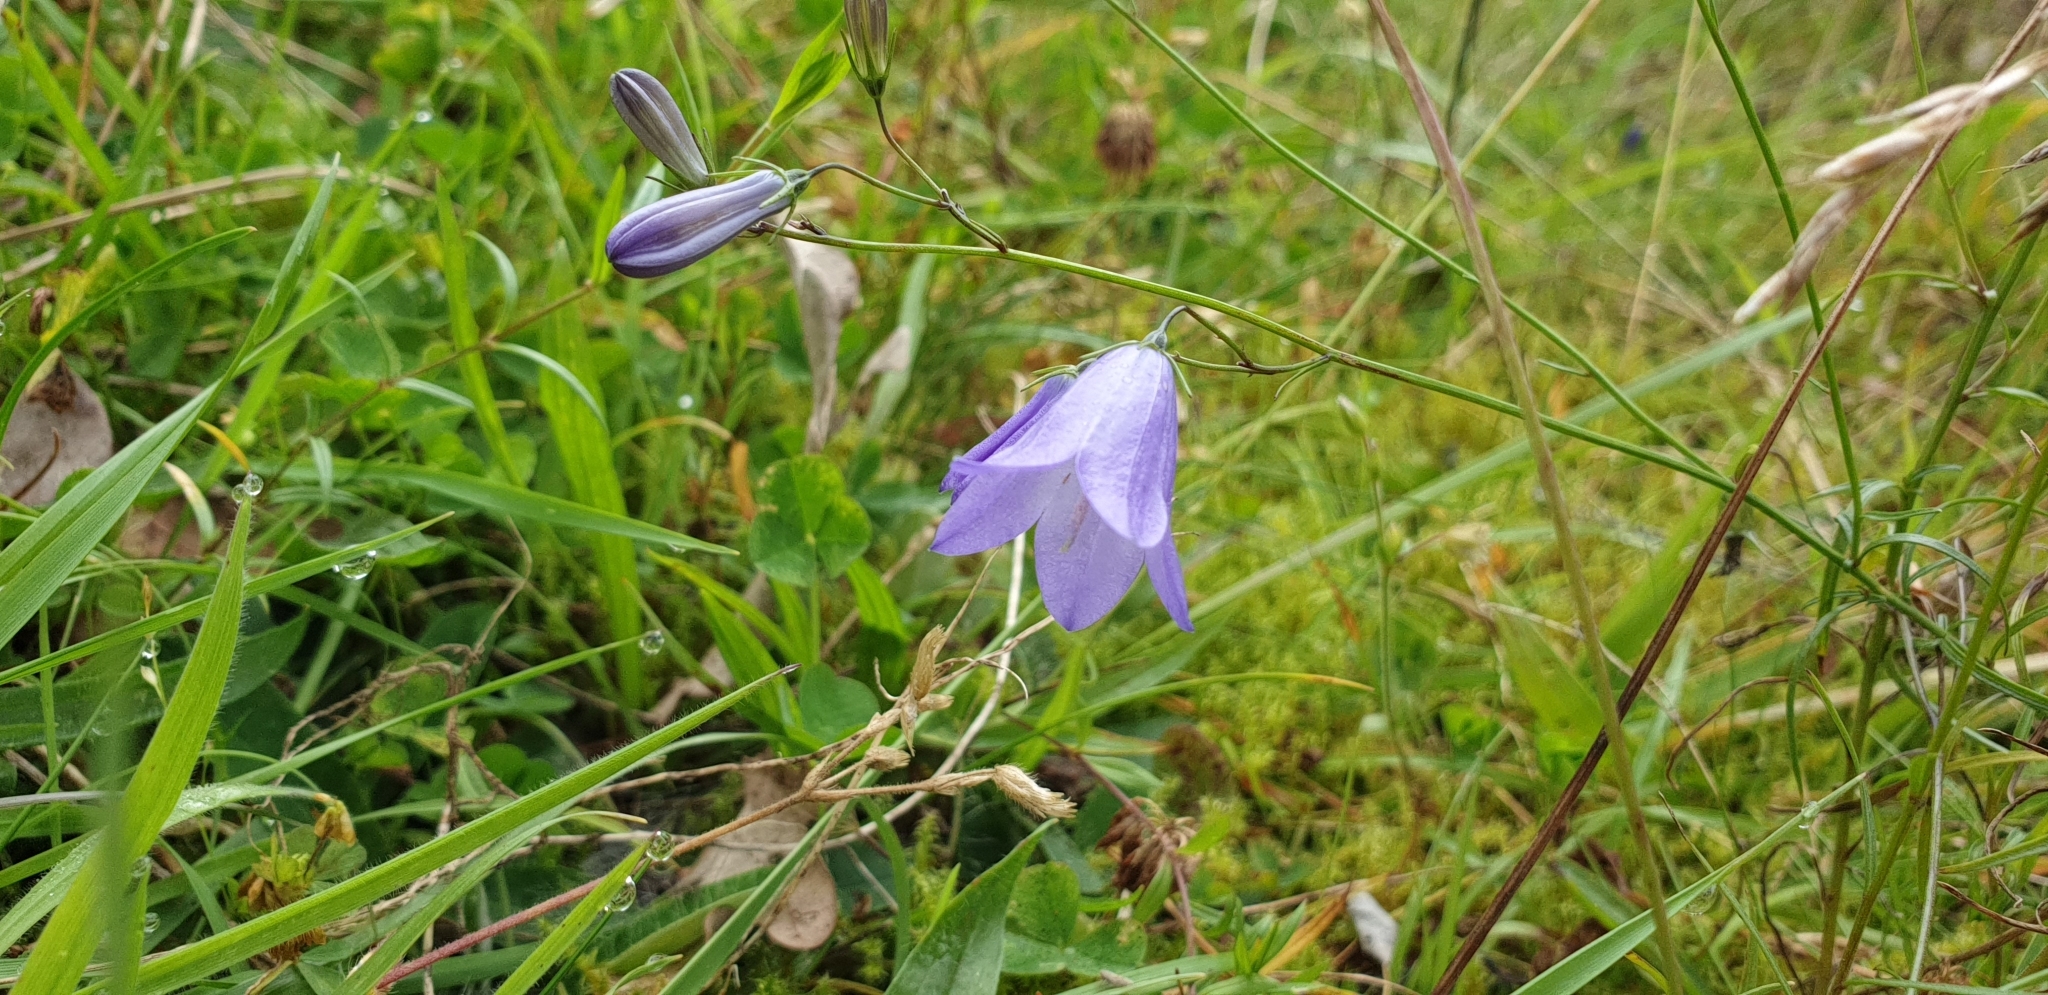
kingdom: Plantae
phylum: Tracheophyta
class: Magnoliopsida
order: Asterales
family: Campanulaceae
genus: Campanula
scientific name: Campanula rotundifolia
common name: Harebell
